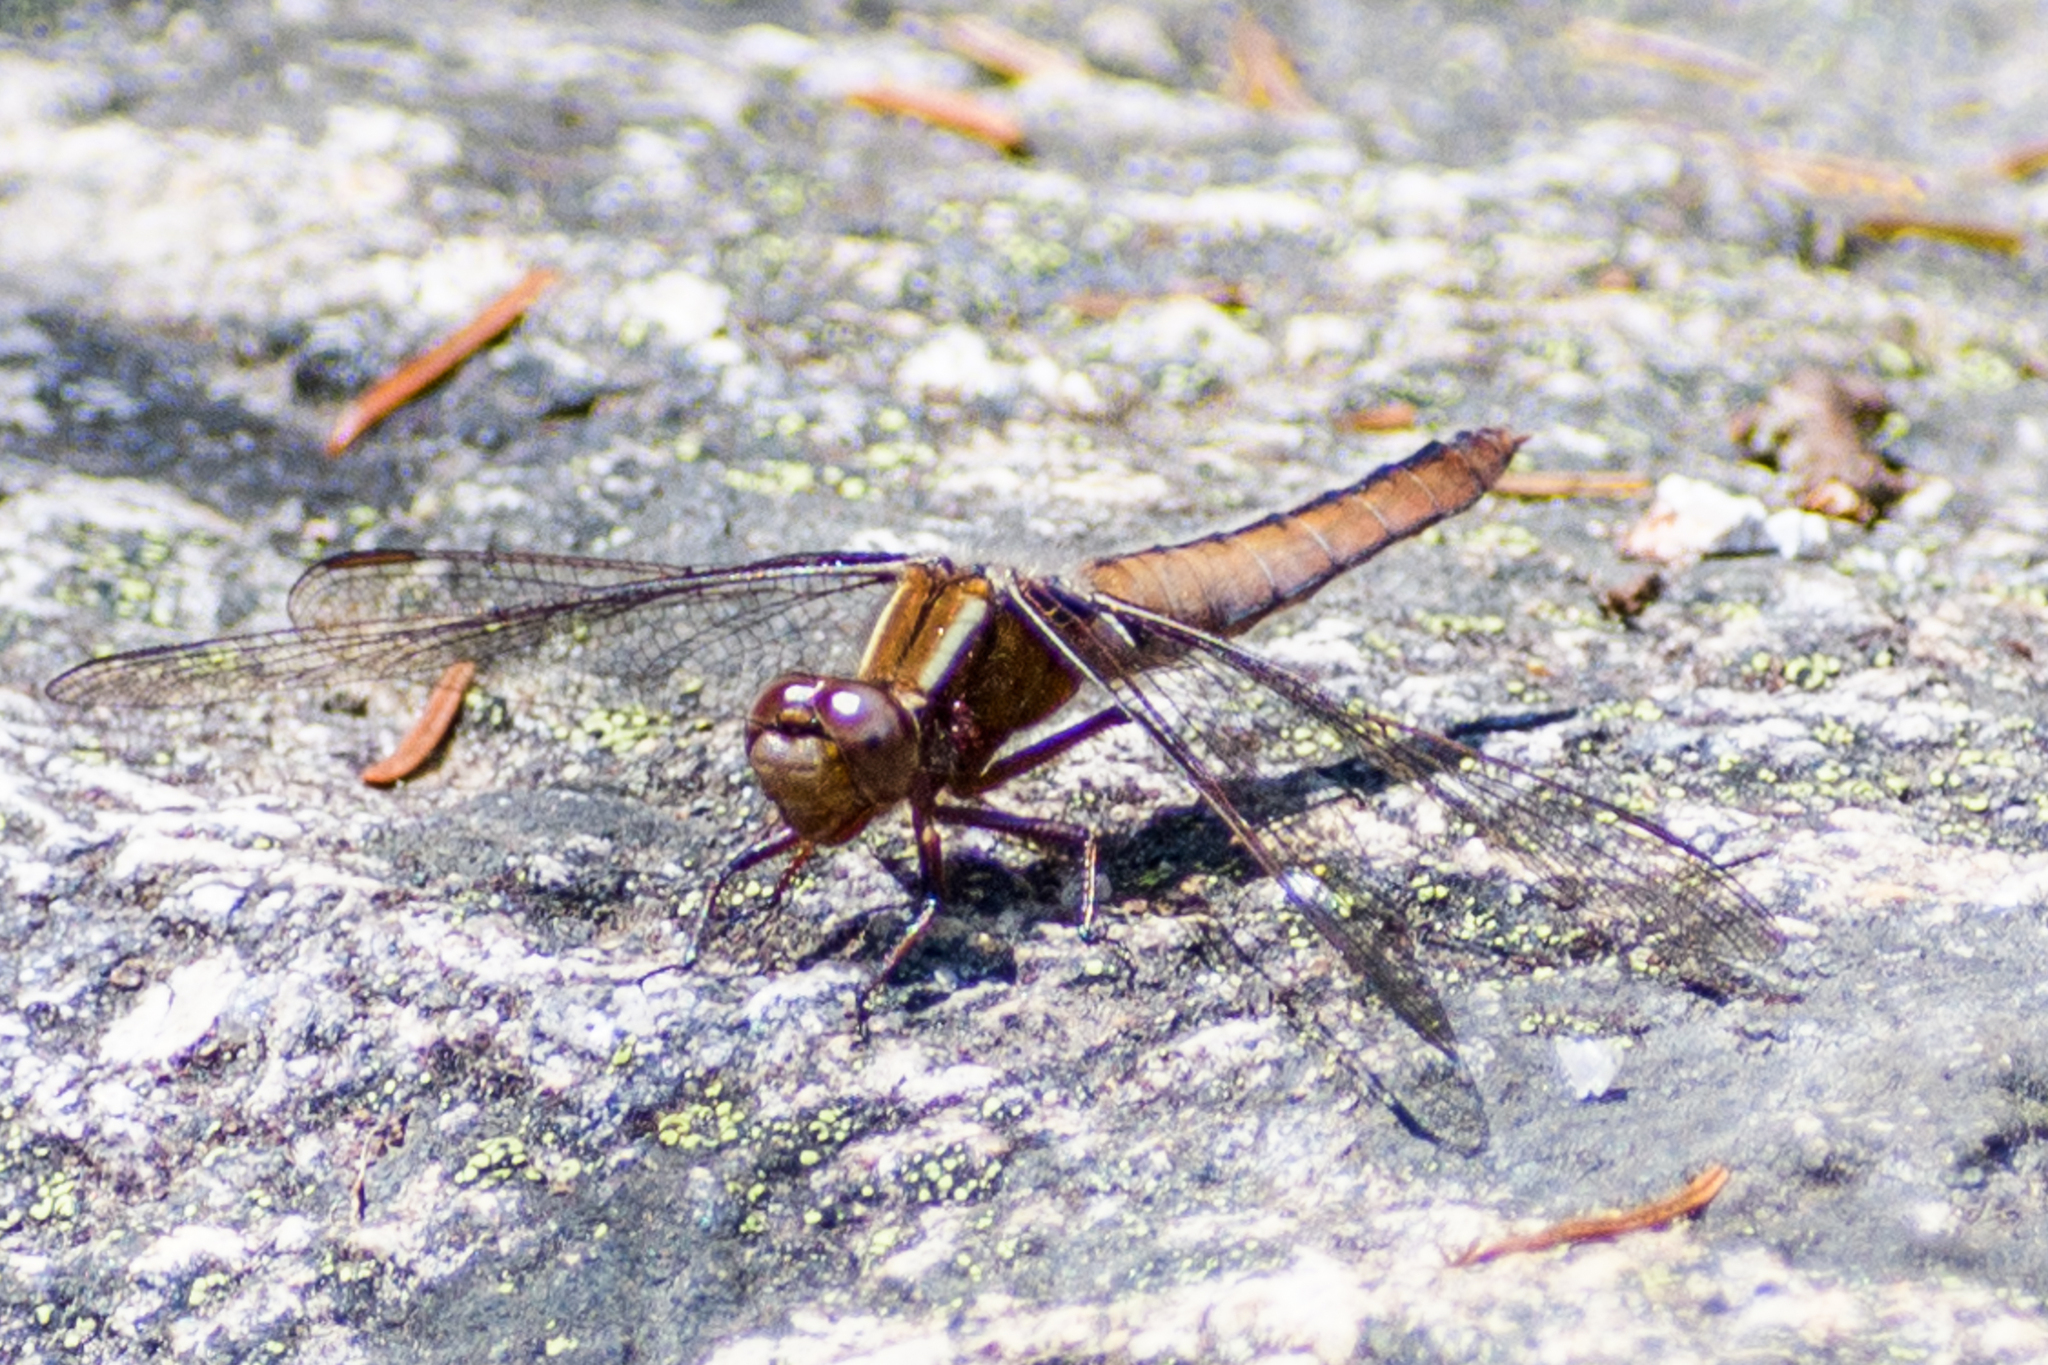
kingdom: Animalia
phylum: Arthropoda
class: Insecta
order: Odonata
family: Libellulidae
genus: Ladona
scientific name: Ladona julia
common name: Chalk-fronted corporal
